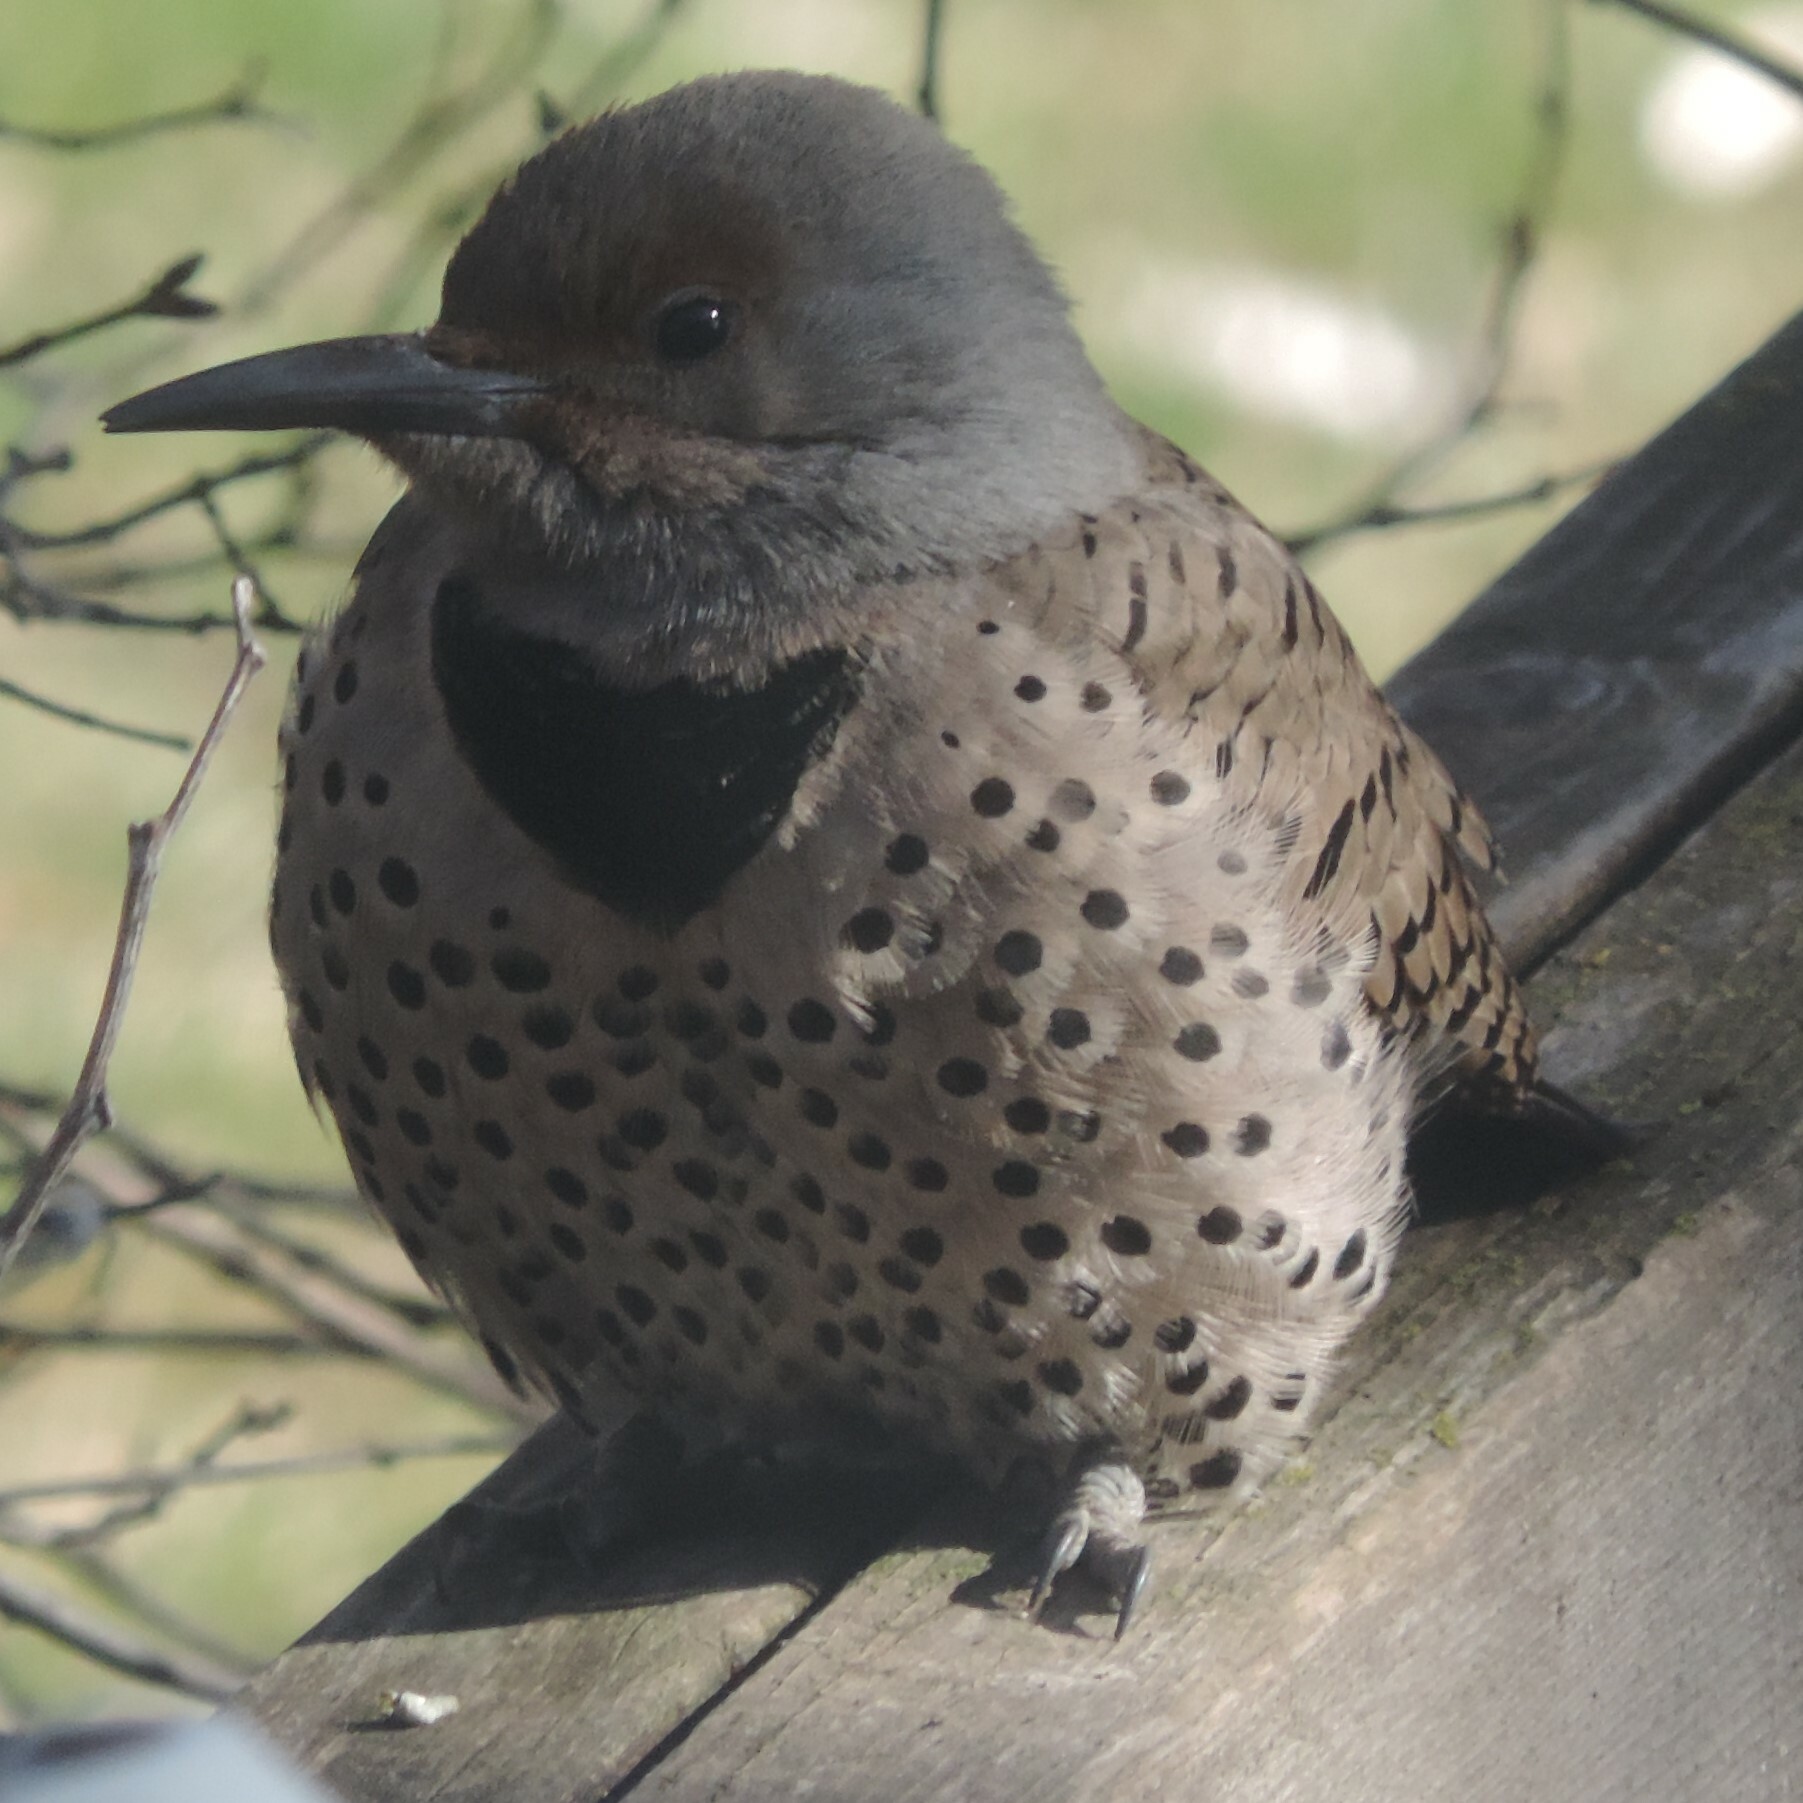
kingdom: Animalia
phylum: Chordata
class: Aves
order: Piciformes
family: Picidae
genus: Colaptes
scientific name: Colaptes auratus
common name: Northern flicker
